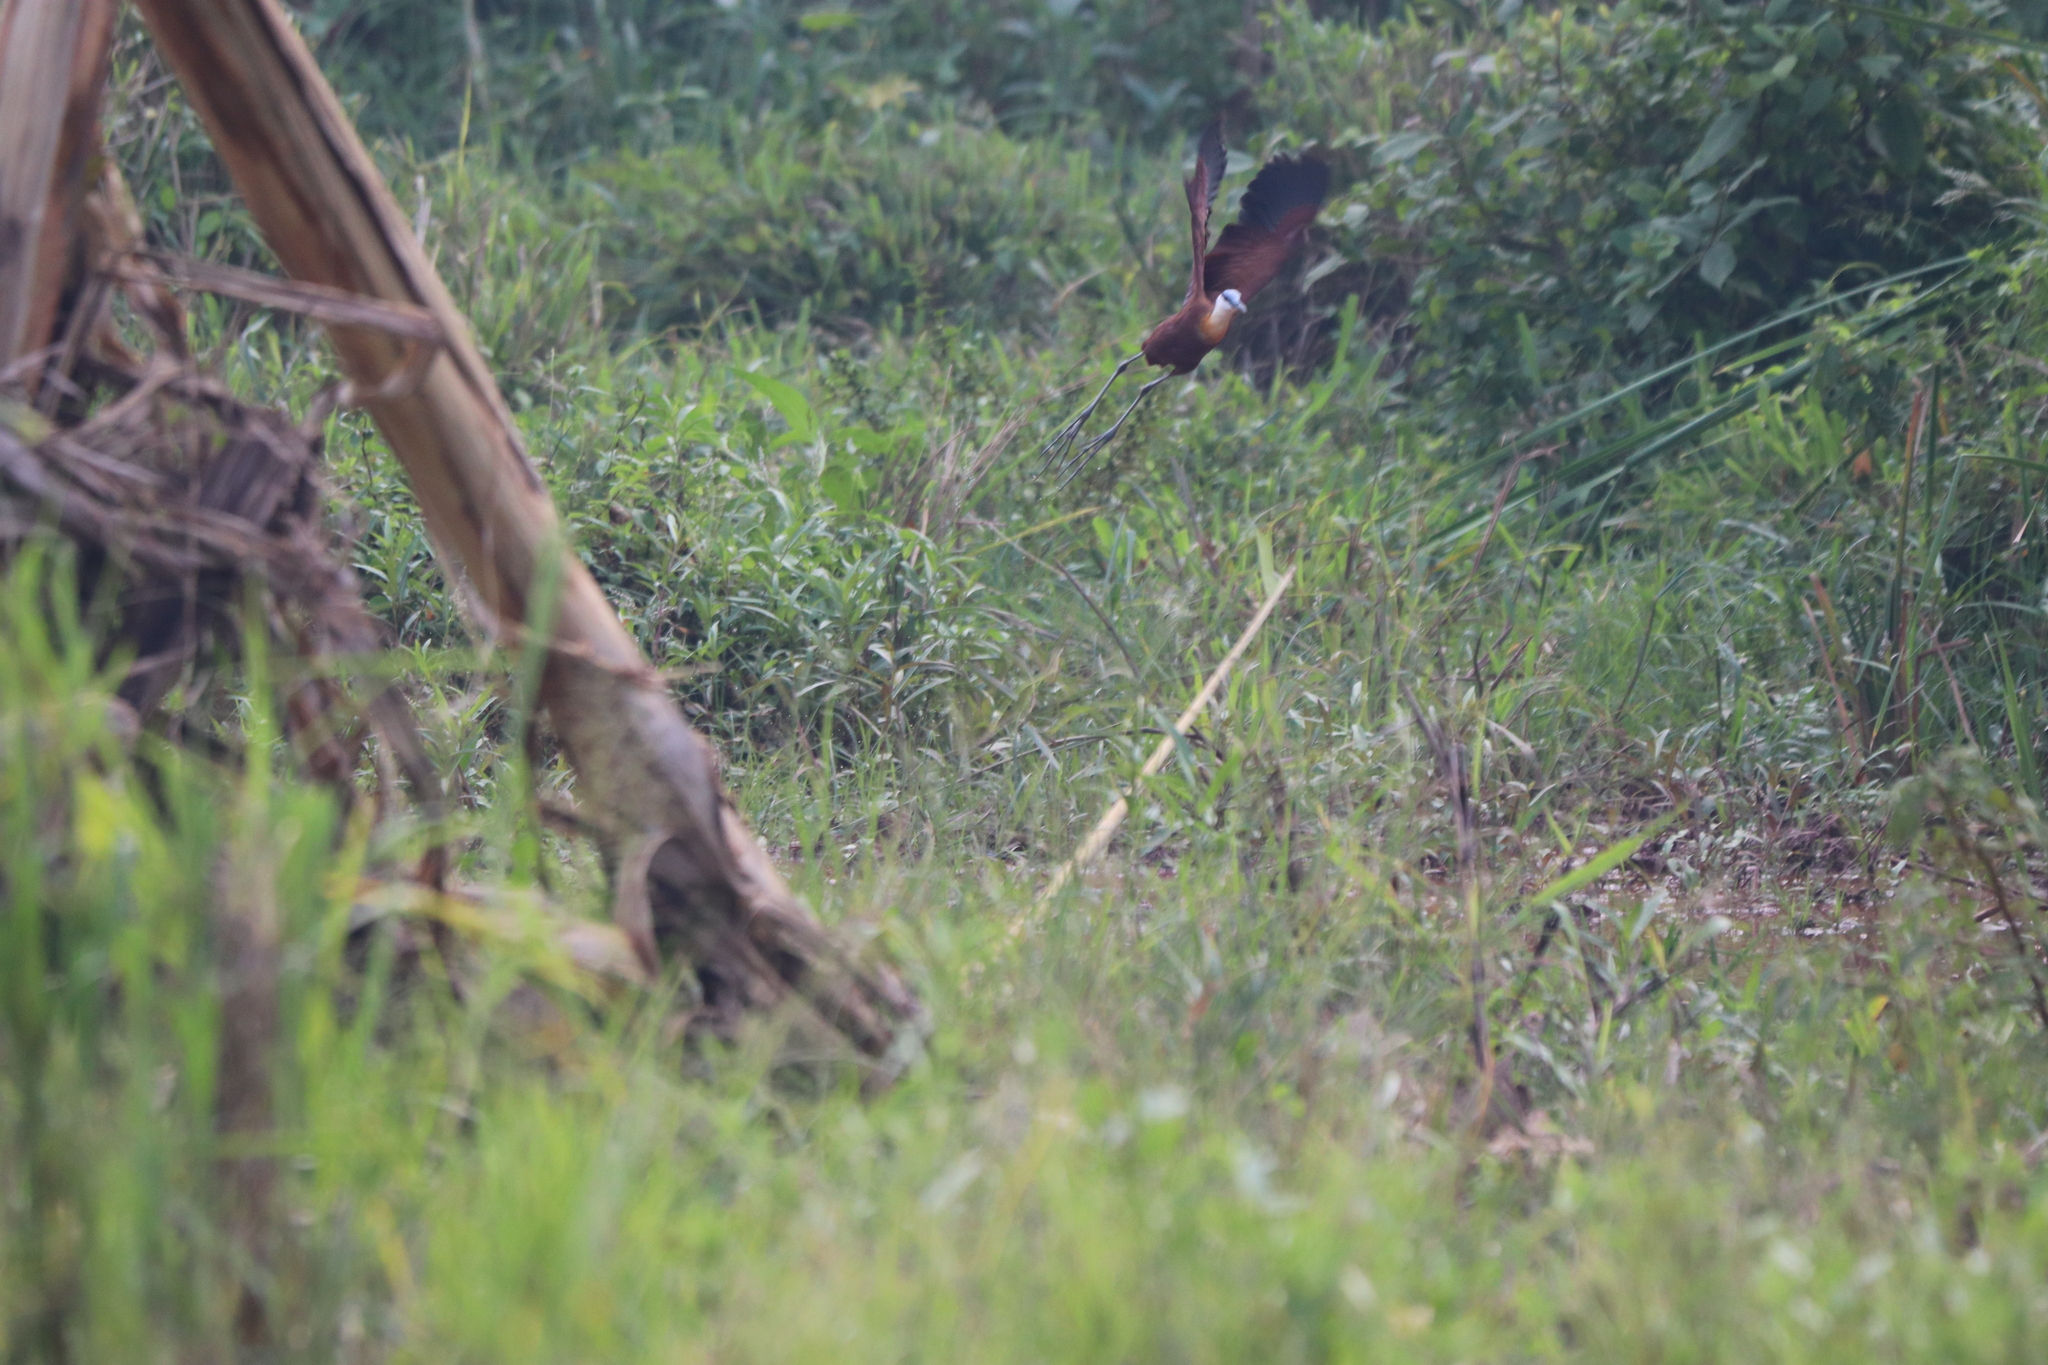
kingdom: Animalia
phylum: Chordata
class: Aves
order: Charadriiformes
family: Jacanidae
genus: Actophilornis
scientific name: Actophilornis africanus
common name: African jacana
